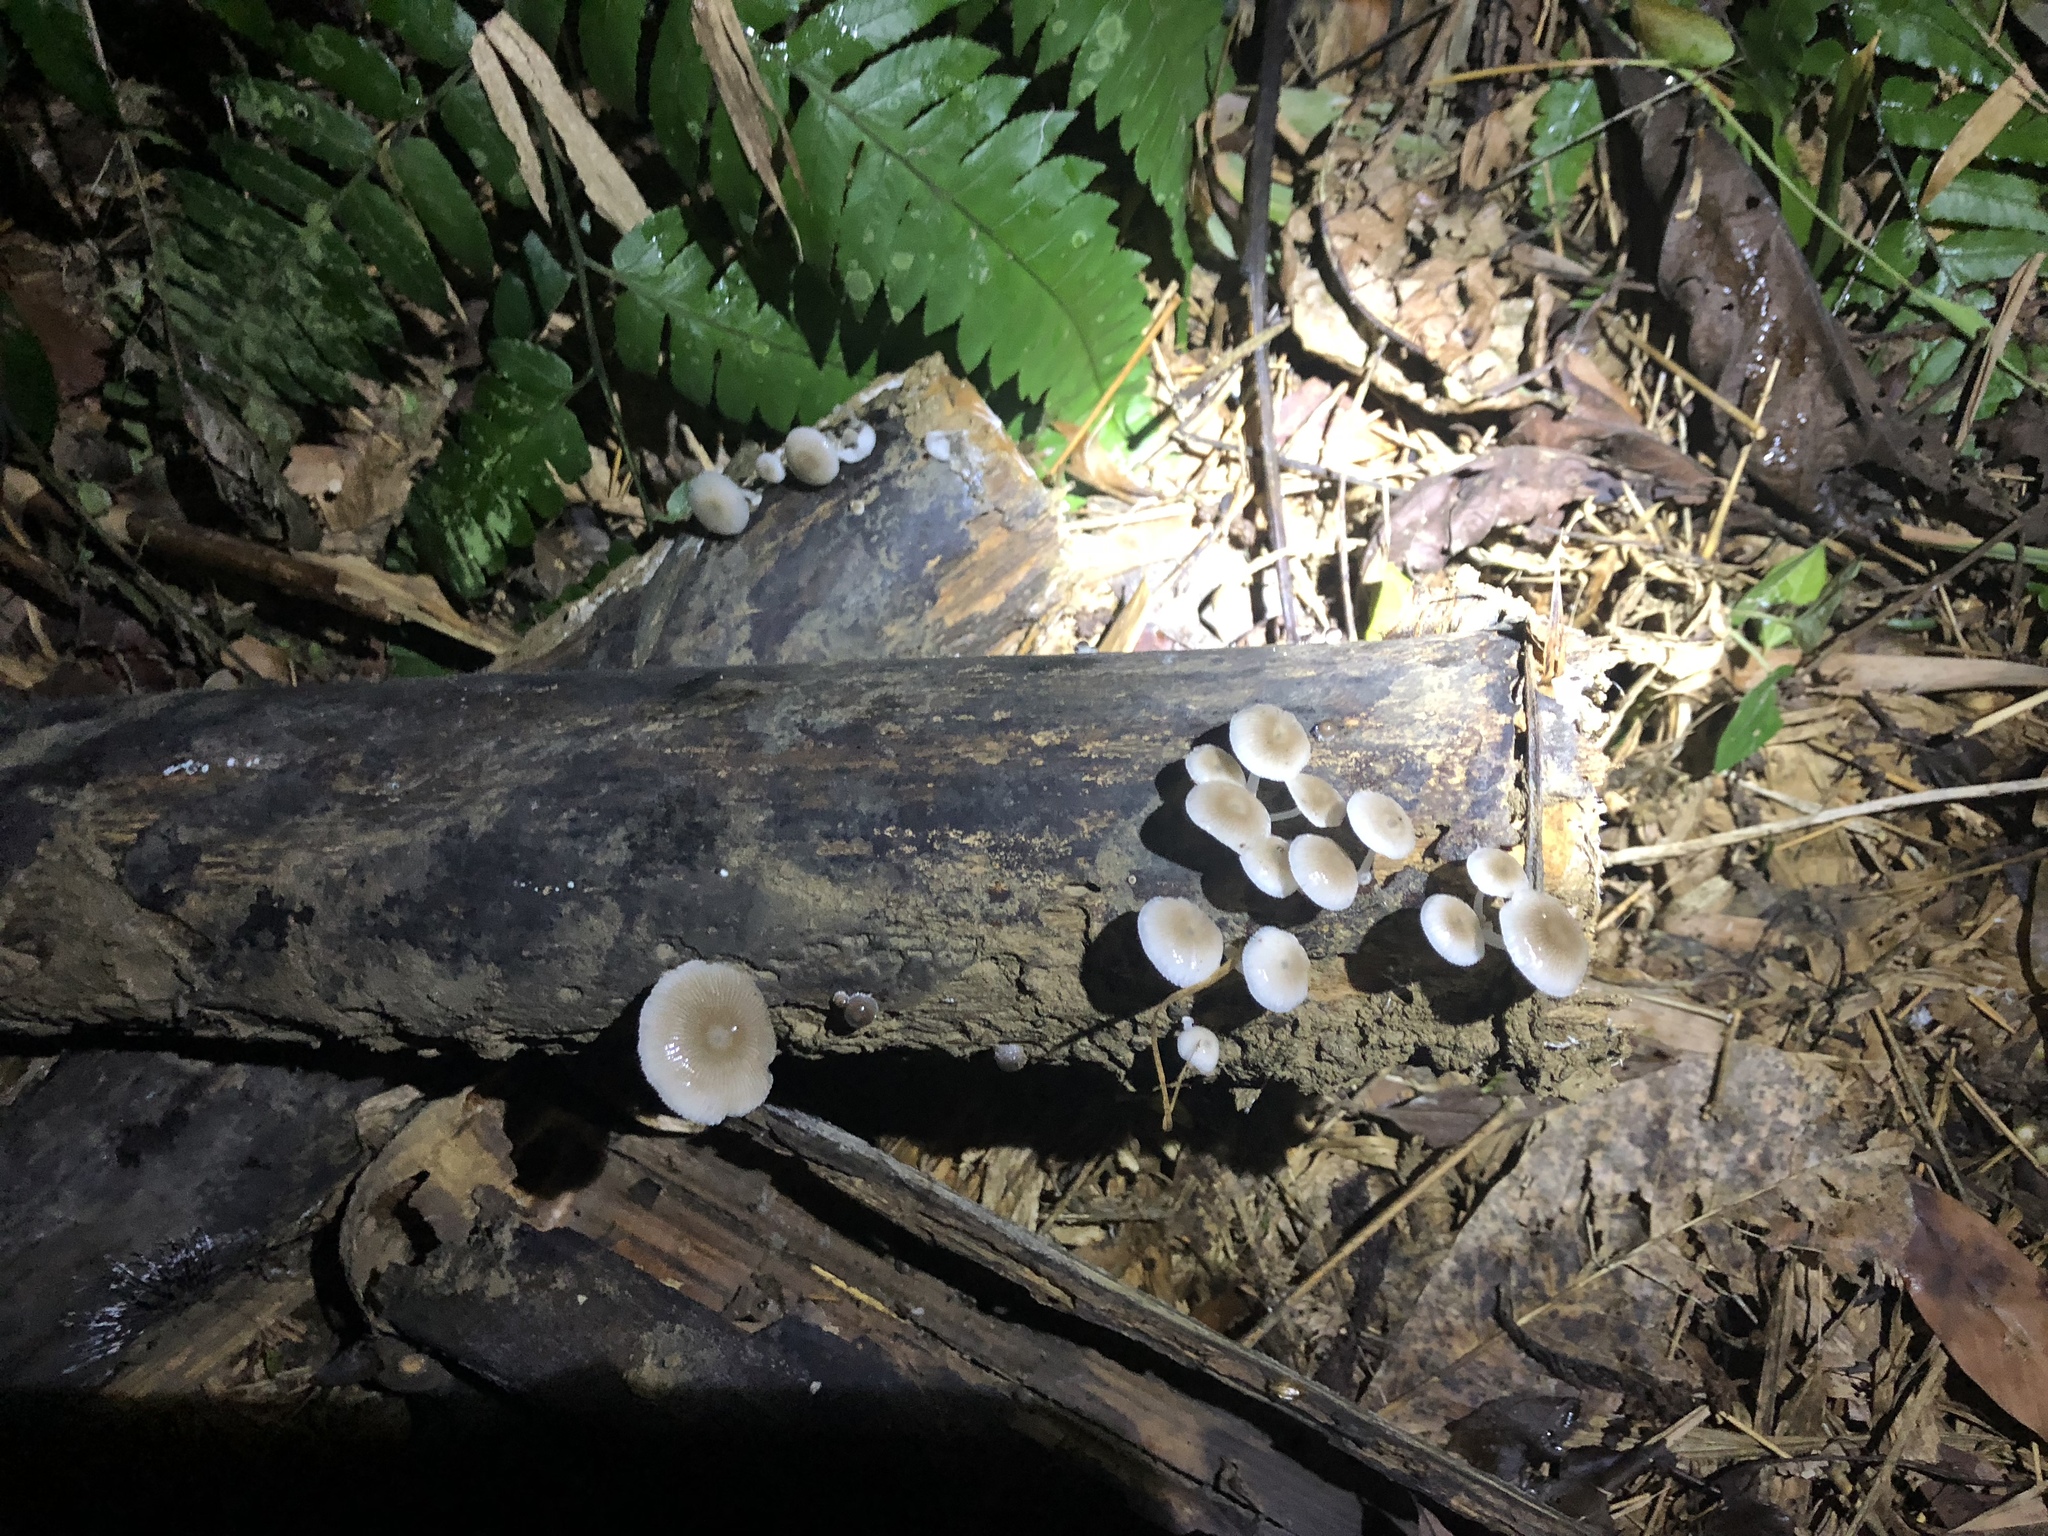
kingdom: Fungi
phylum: Basidiomycota
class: Agaricomycetes
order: Agaricales
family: Mycenaceae
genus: Mycena
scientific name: Mycena chlorophos
